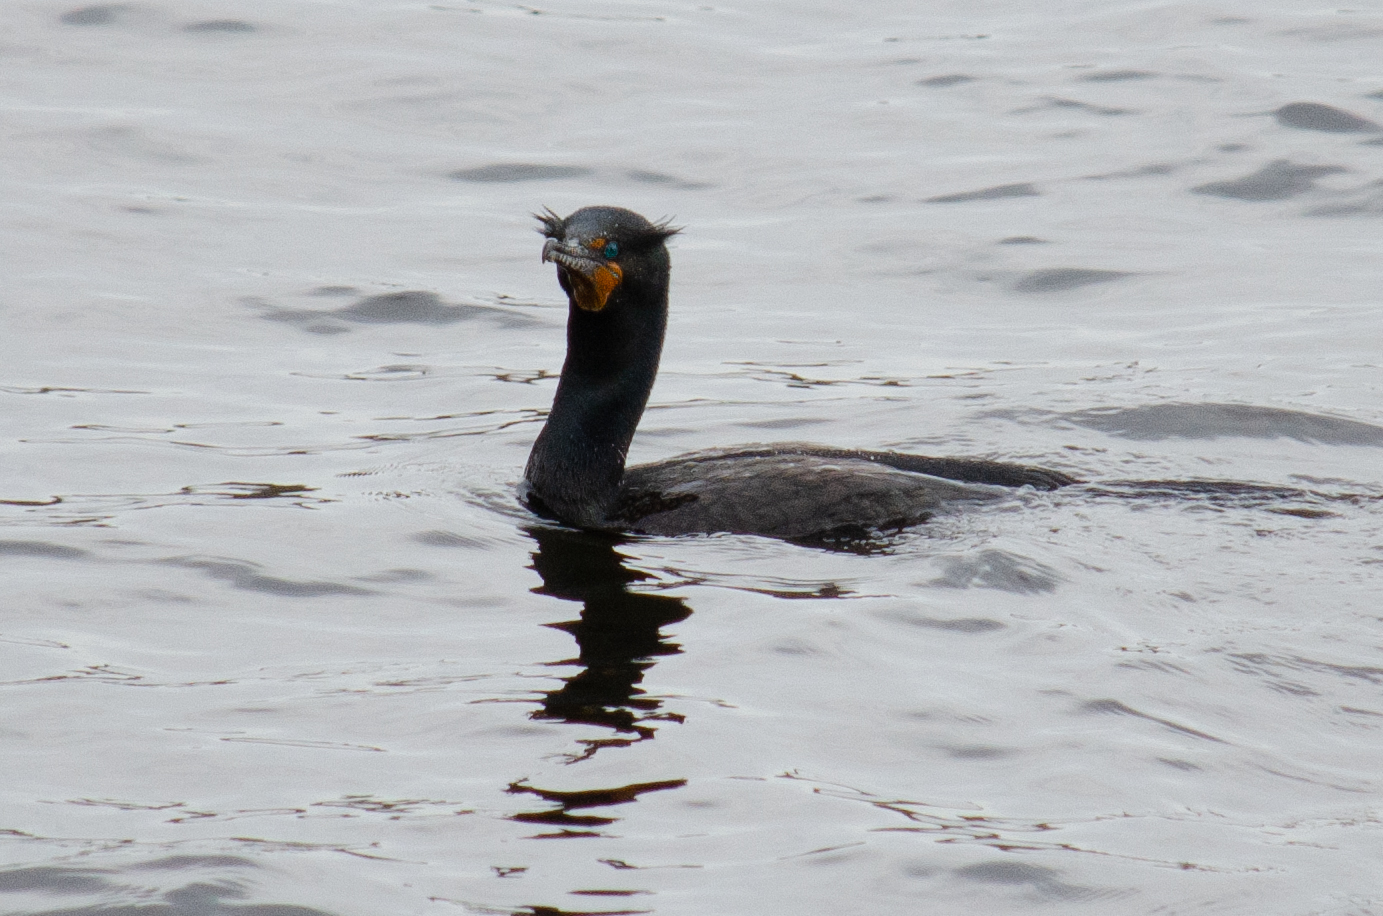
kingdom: Animalia
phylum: Chordata
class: Aves
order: Suliformes
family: Phalacrocoracidae
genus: Phalacrocorax
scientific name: Phalacrocorax auritus
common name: Double-crested cormorant
